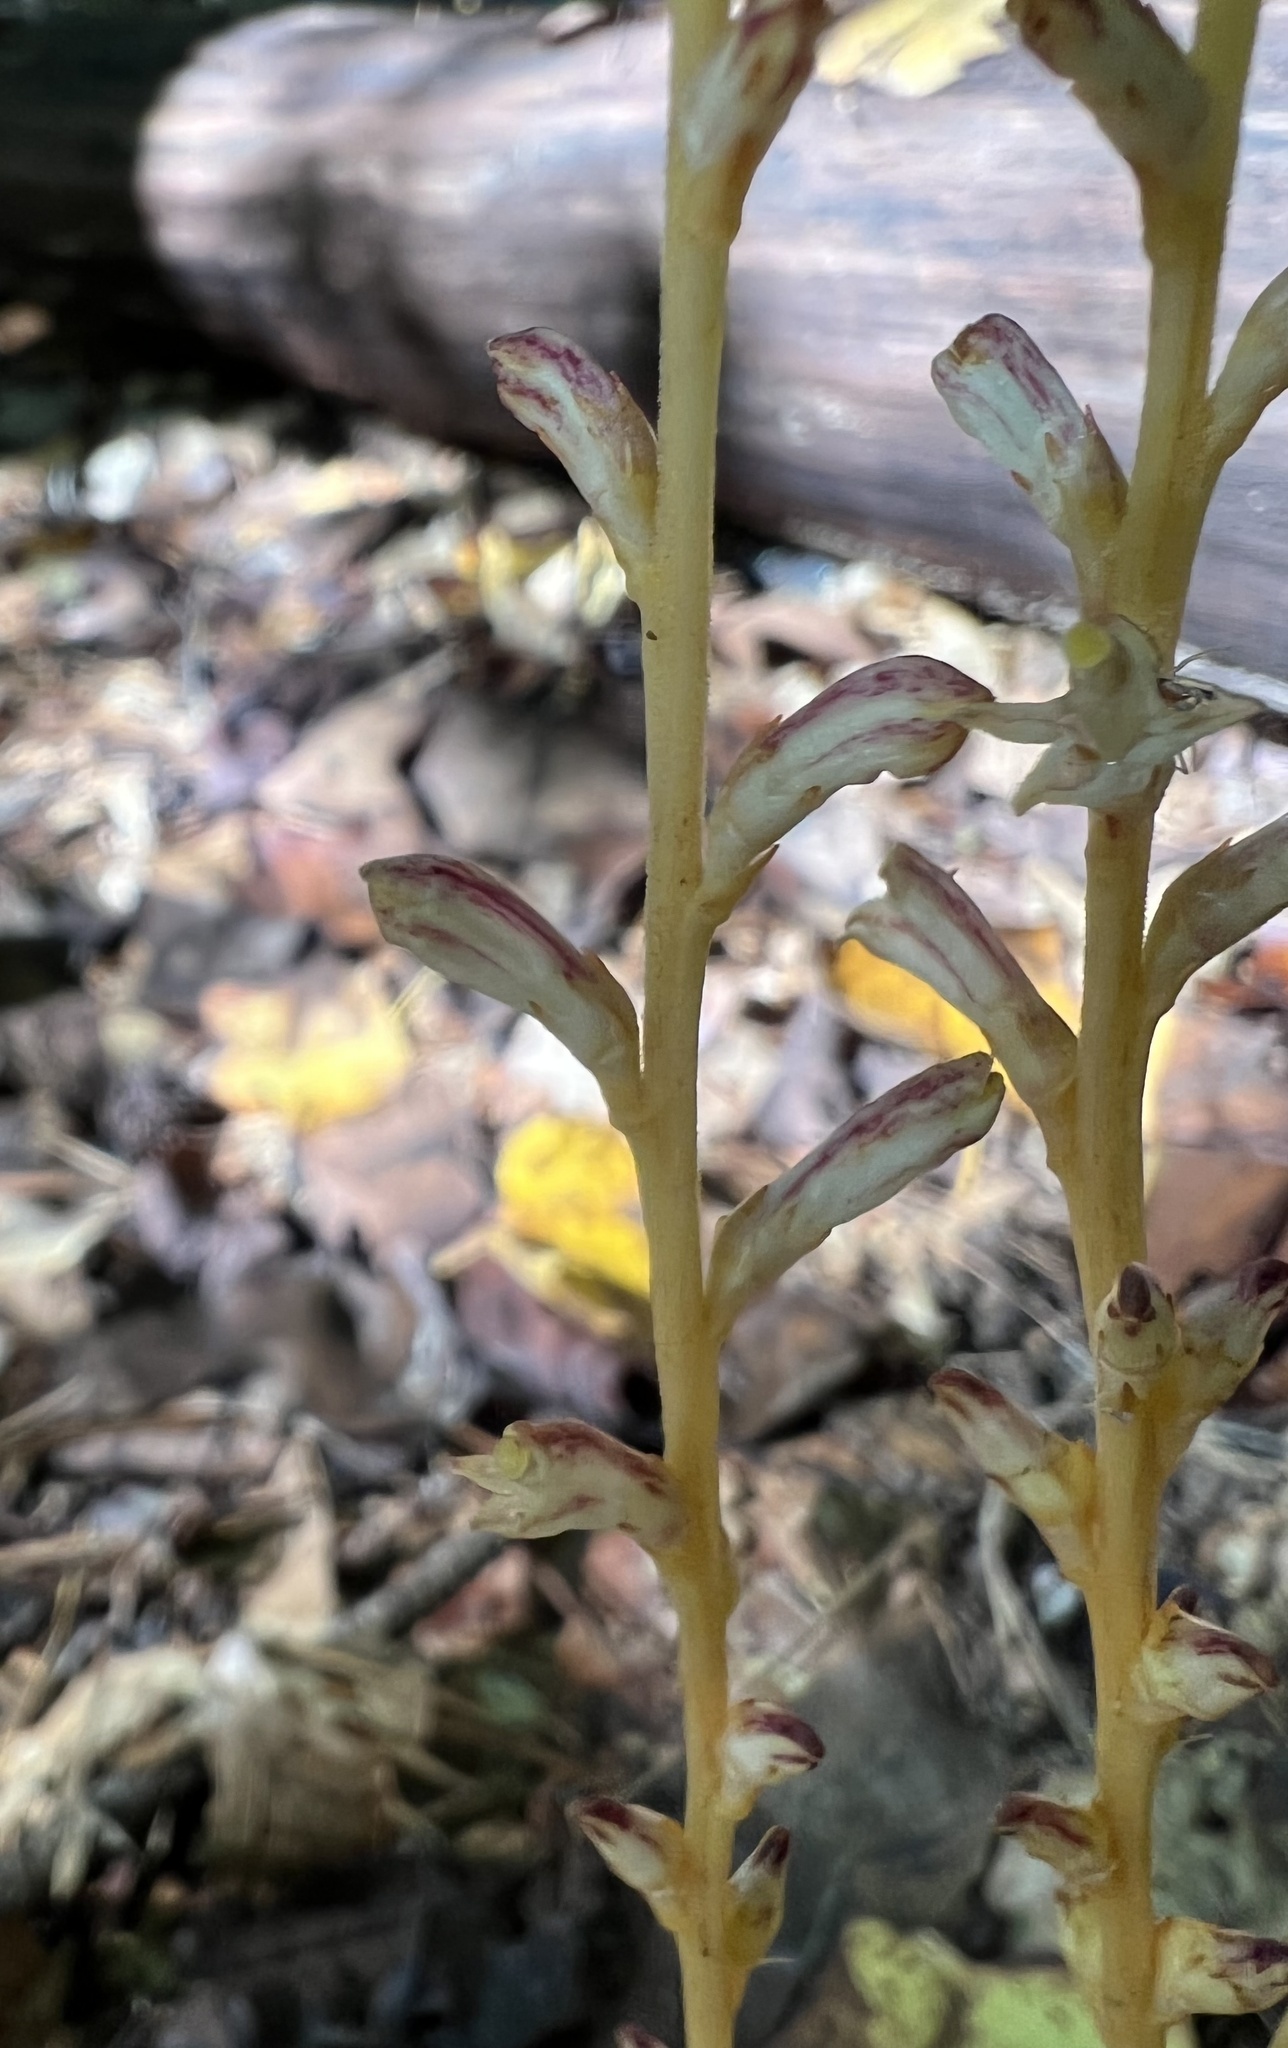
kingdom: Plantae
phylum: Tracheophyta
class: Magnoliopsida
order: Lamiales
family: Orobanchaceae
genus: Epifagus
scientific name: Epifagus virginiana
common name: Beechdrops
